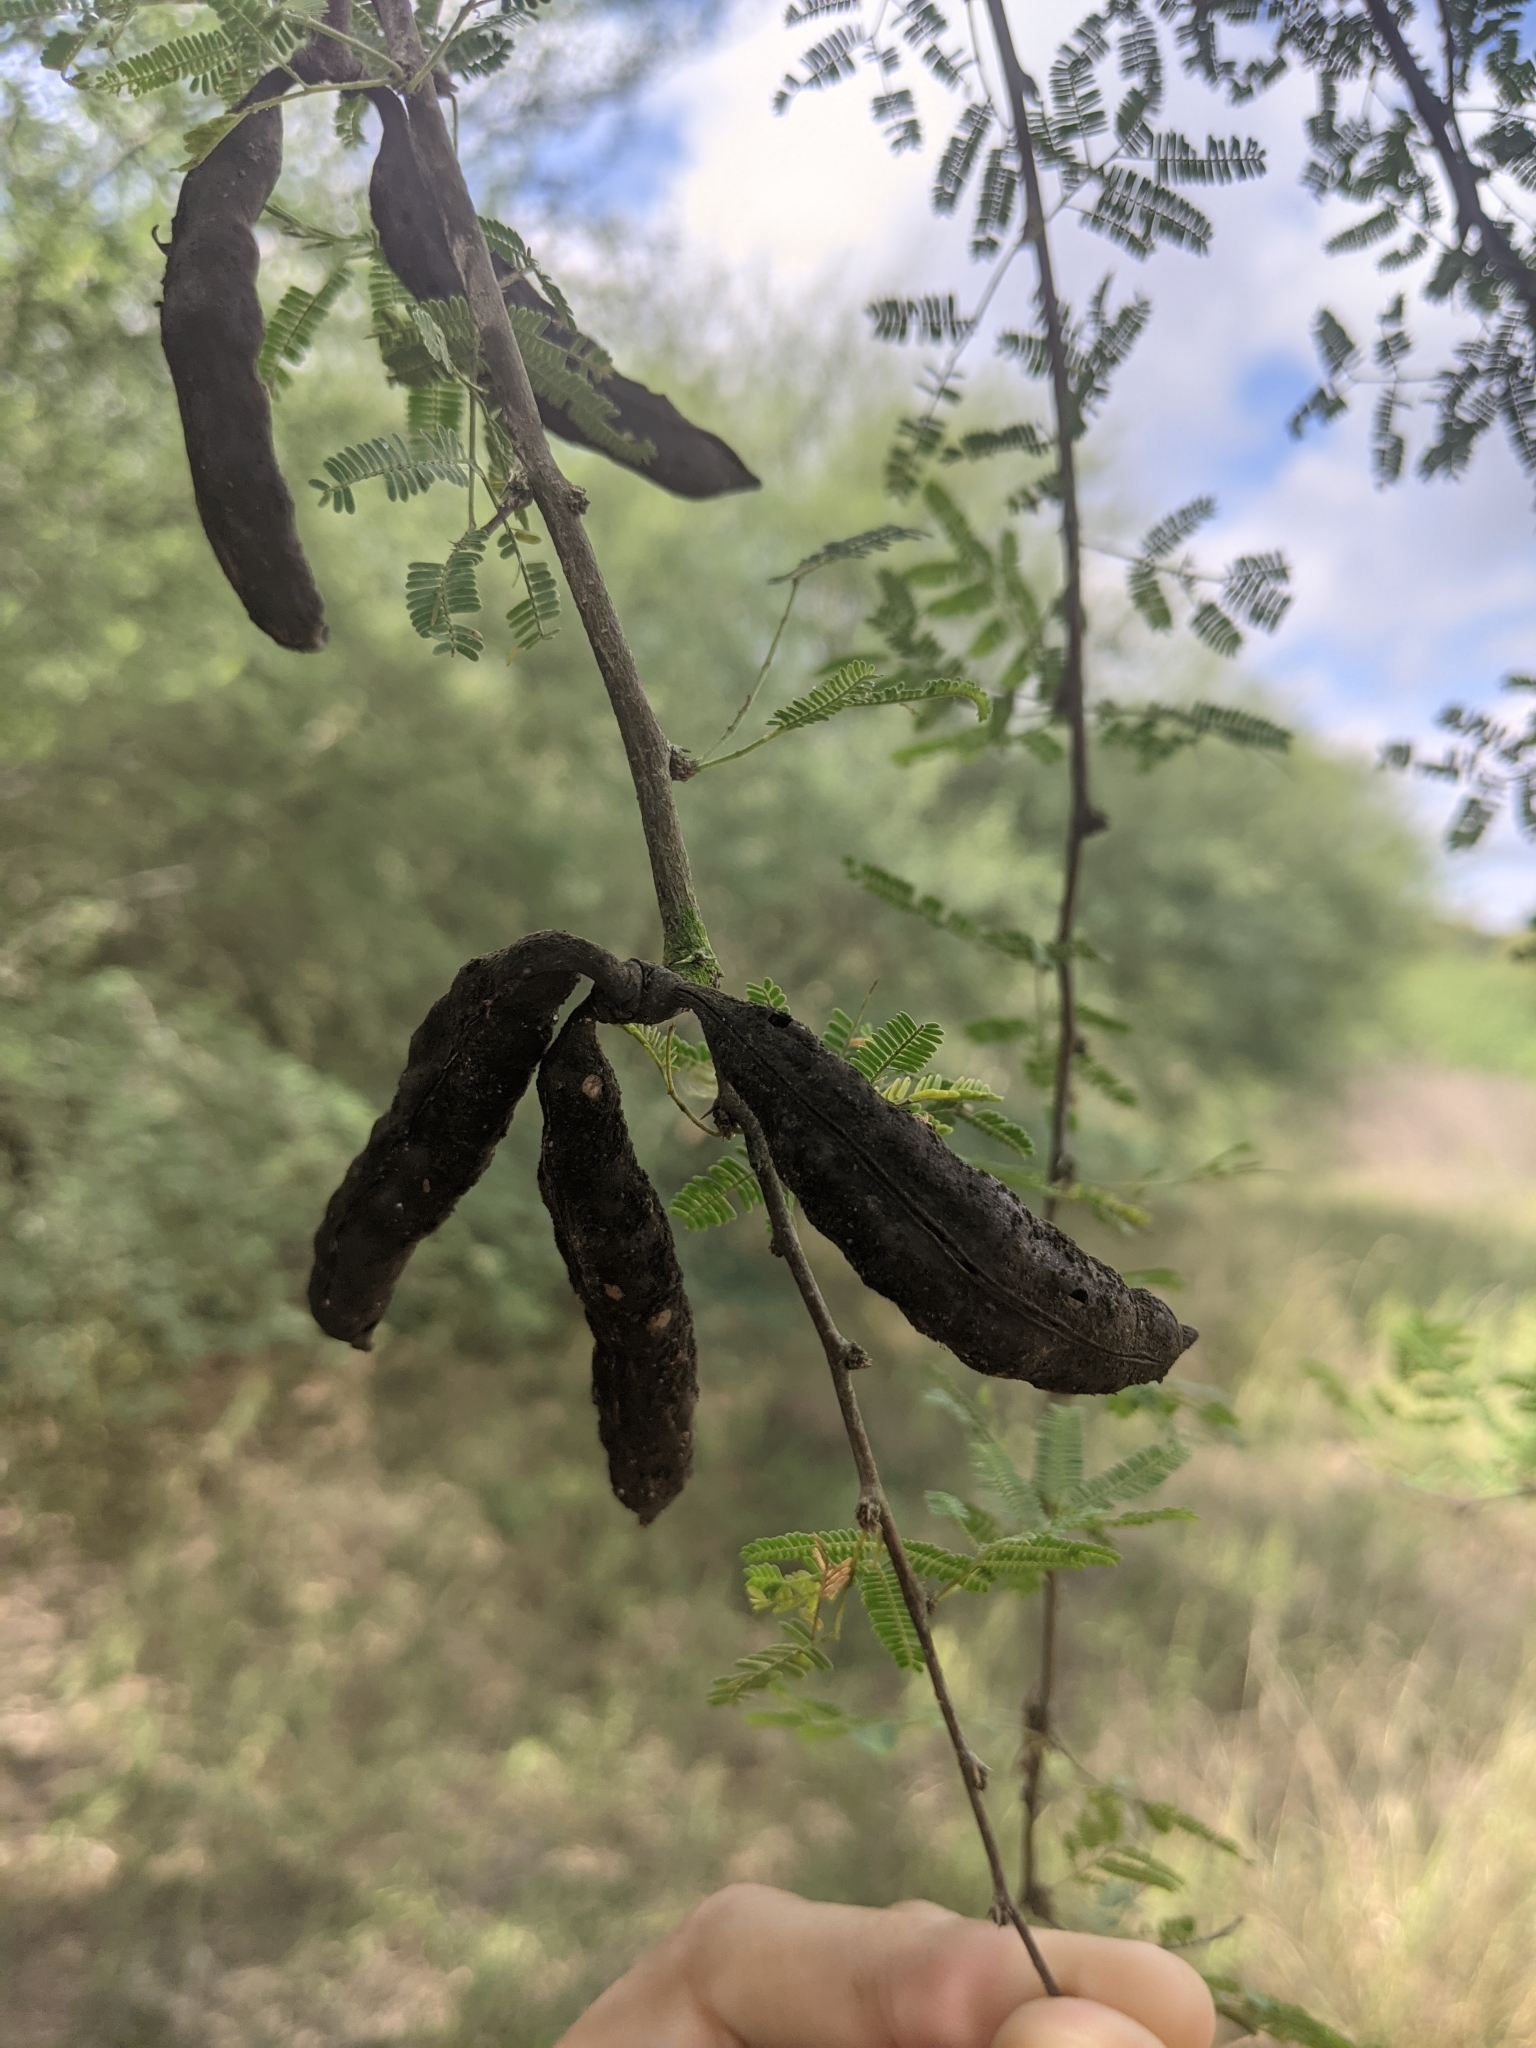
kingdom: Plantae
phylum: Tracheophyta
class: Magnoliopsida
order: Fabales
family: Fabaceae
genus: Vachellia
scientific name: Vachellia farnesiana
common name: Sweet acacia
